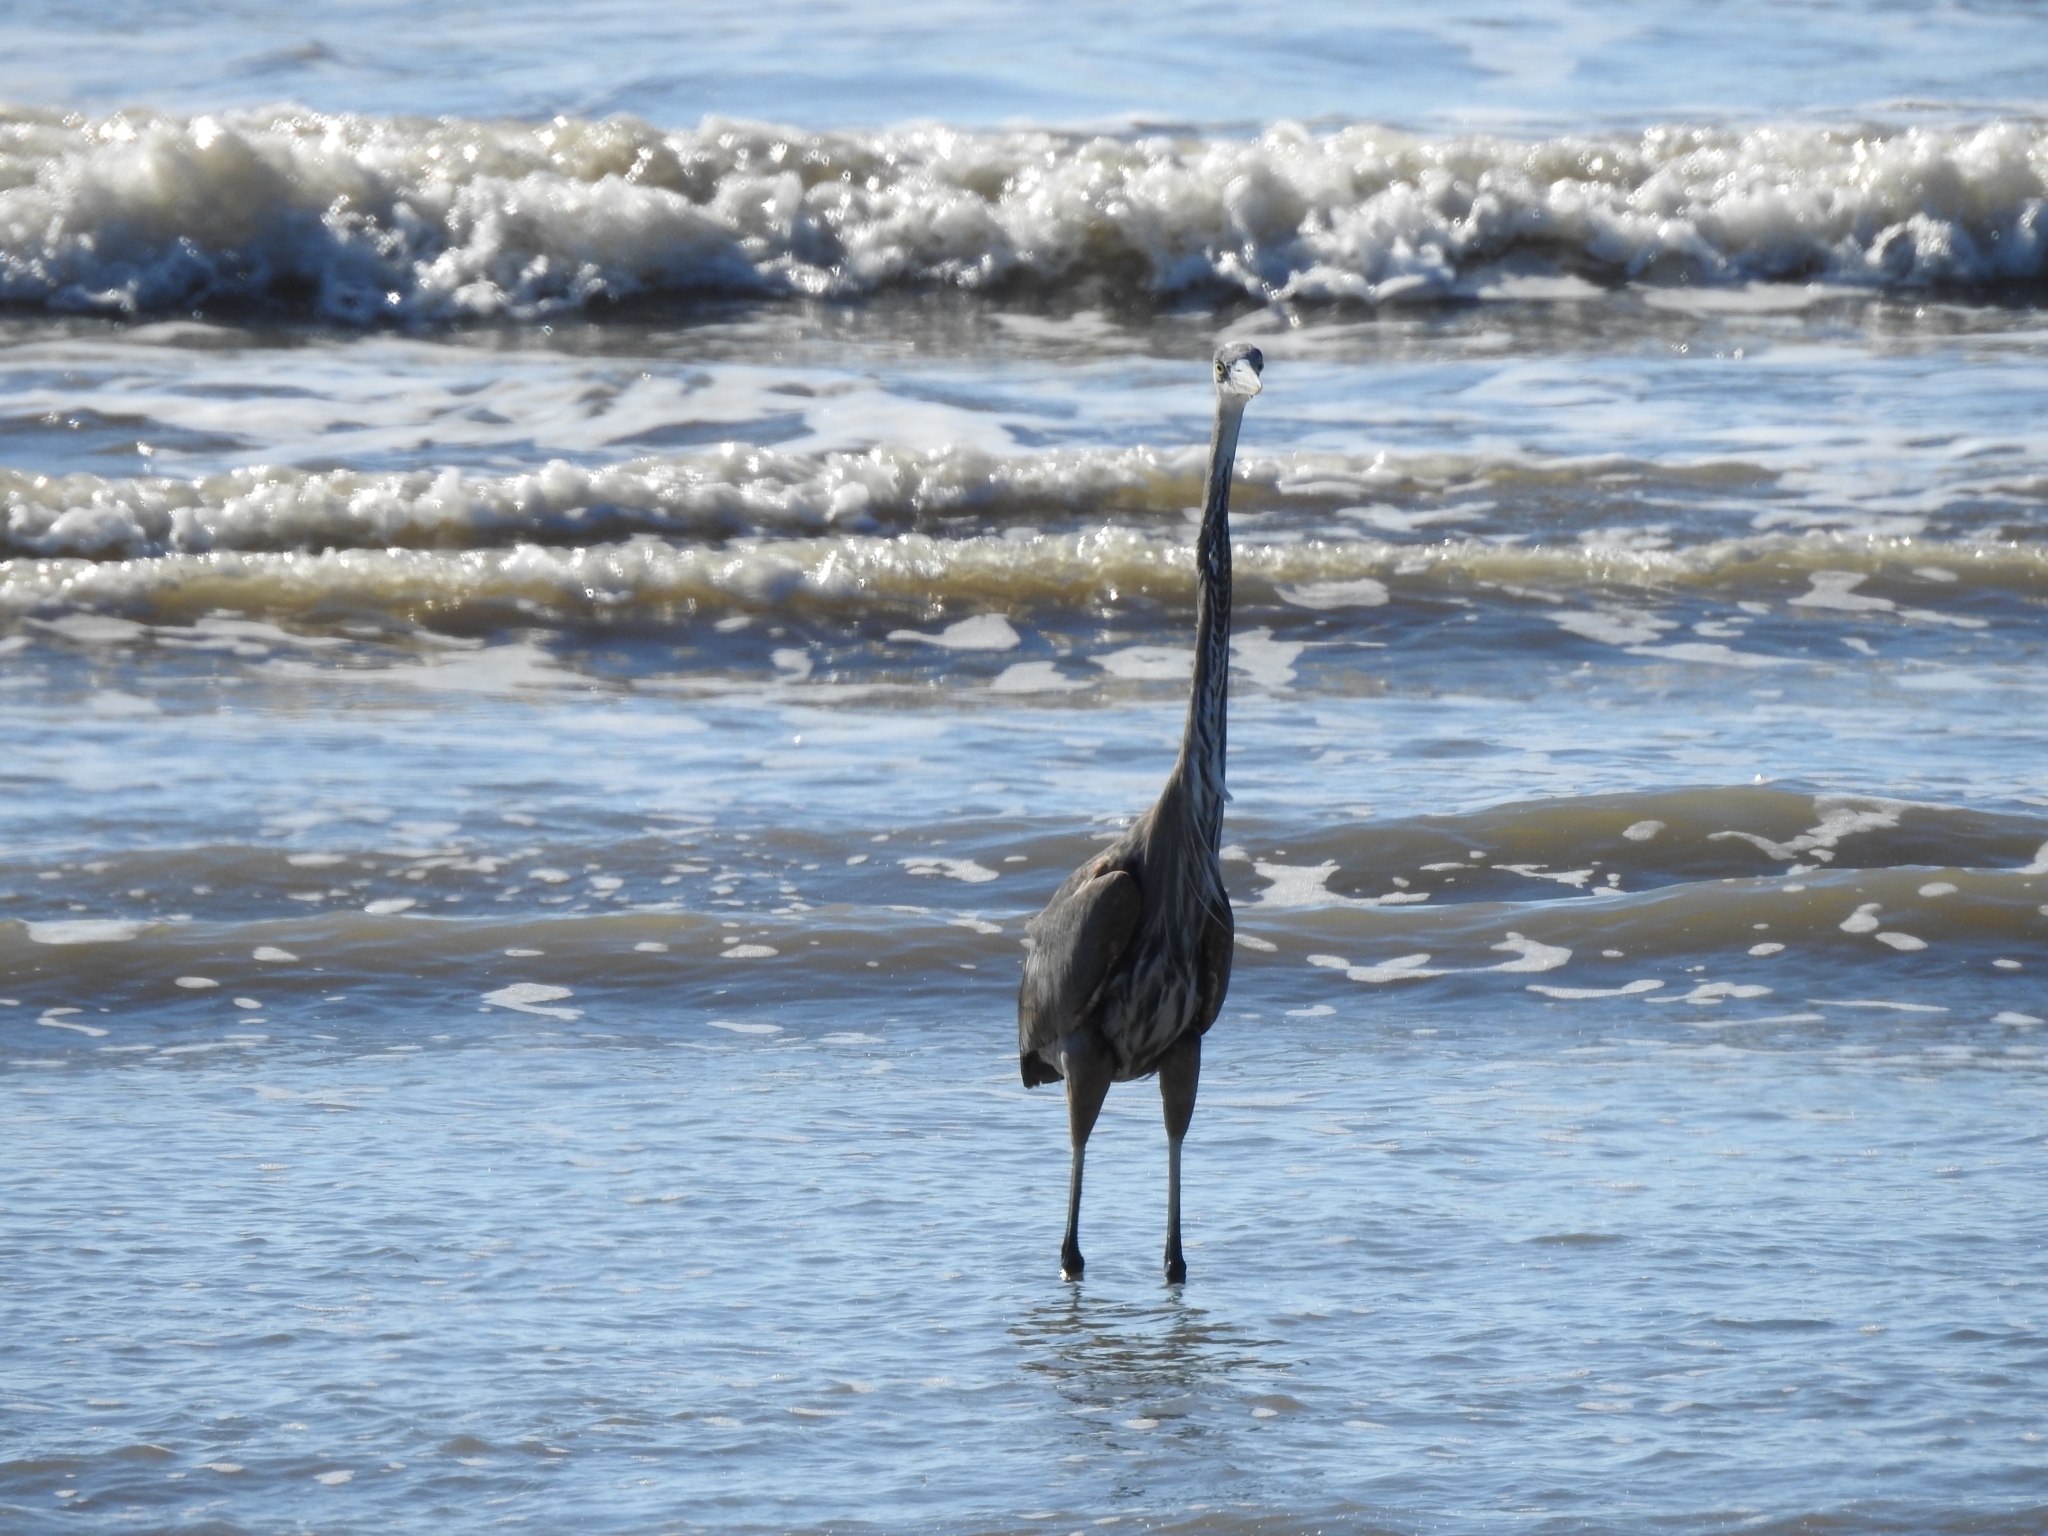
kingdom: Animalia
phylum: Chordata
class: Aves
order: Pelecaniformes
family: Ardeidae
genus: Ardea
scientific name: Ardea herodias
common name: Great blue heron
